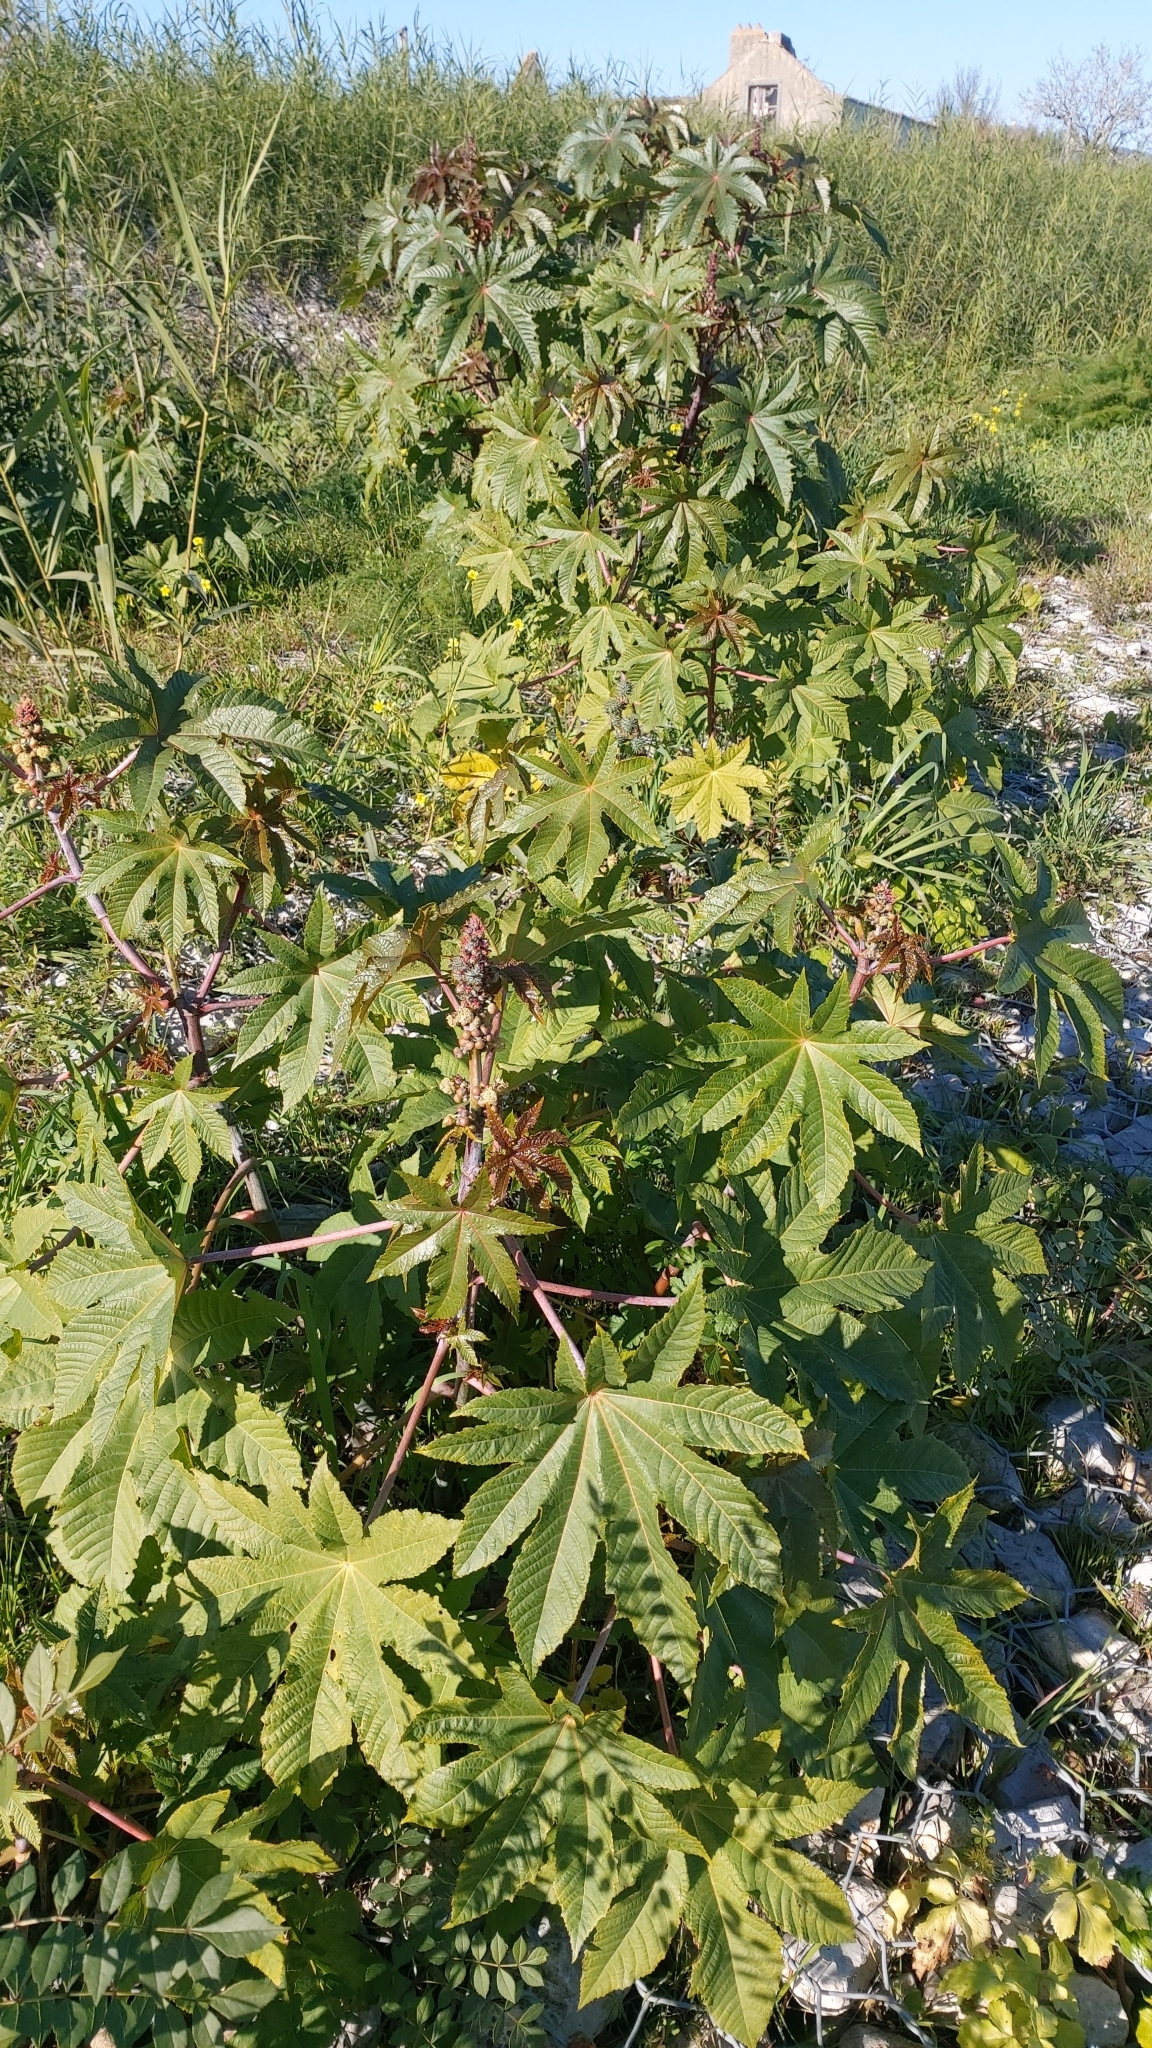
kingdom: Plantae
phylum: Tracheophyta
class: Magnoliopsida
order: Malpighiales
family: Euphorbiaceae
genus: Ricinus
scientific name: Ricinus communis
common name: Castor-oil-plant
